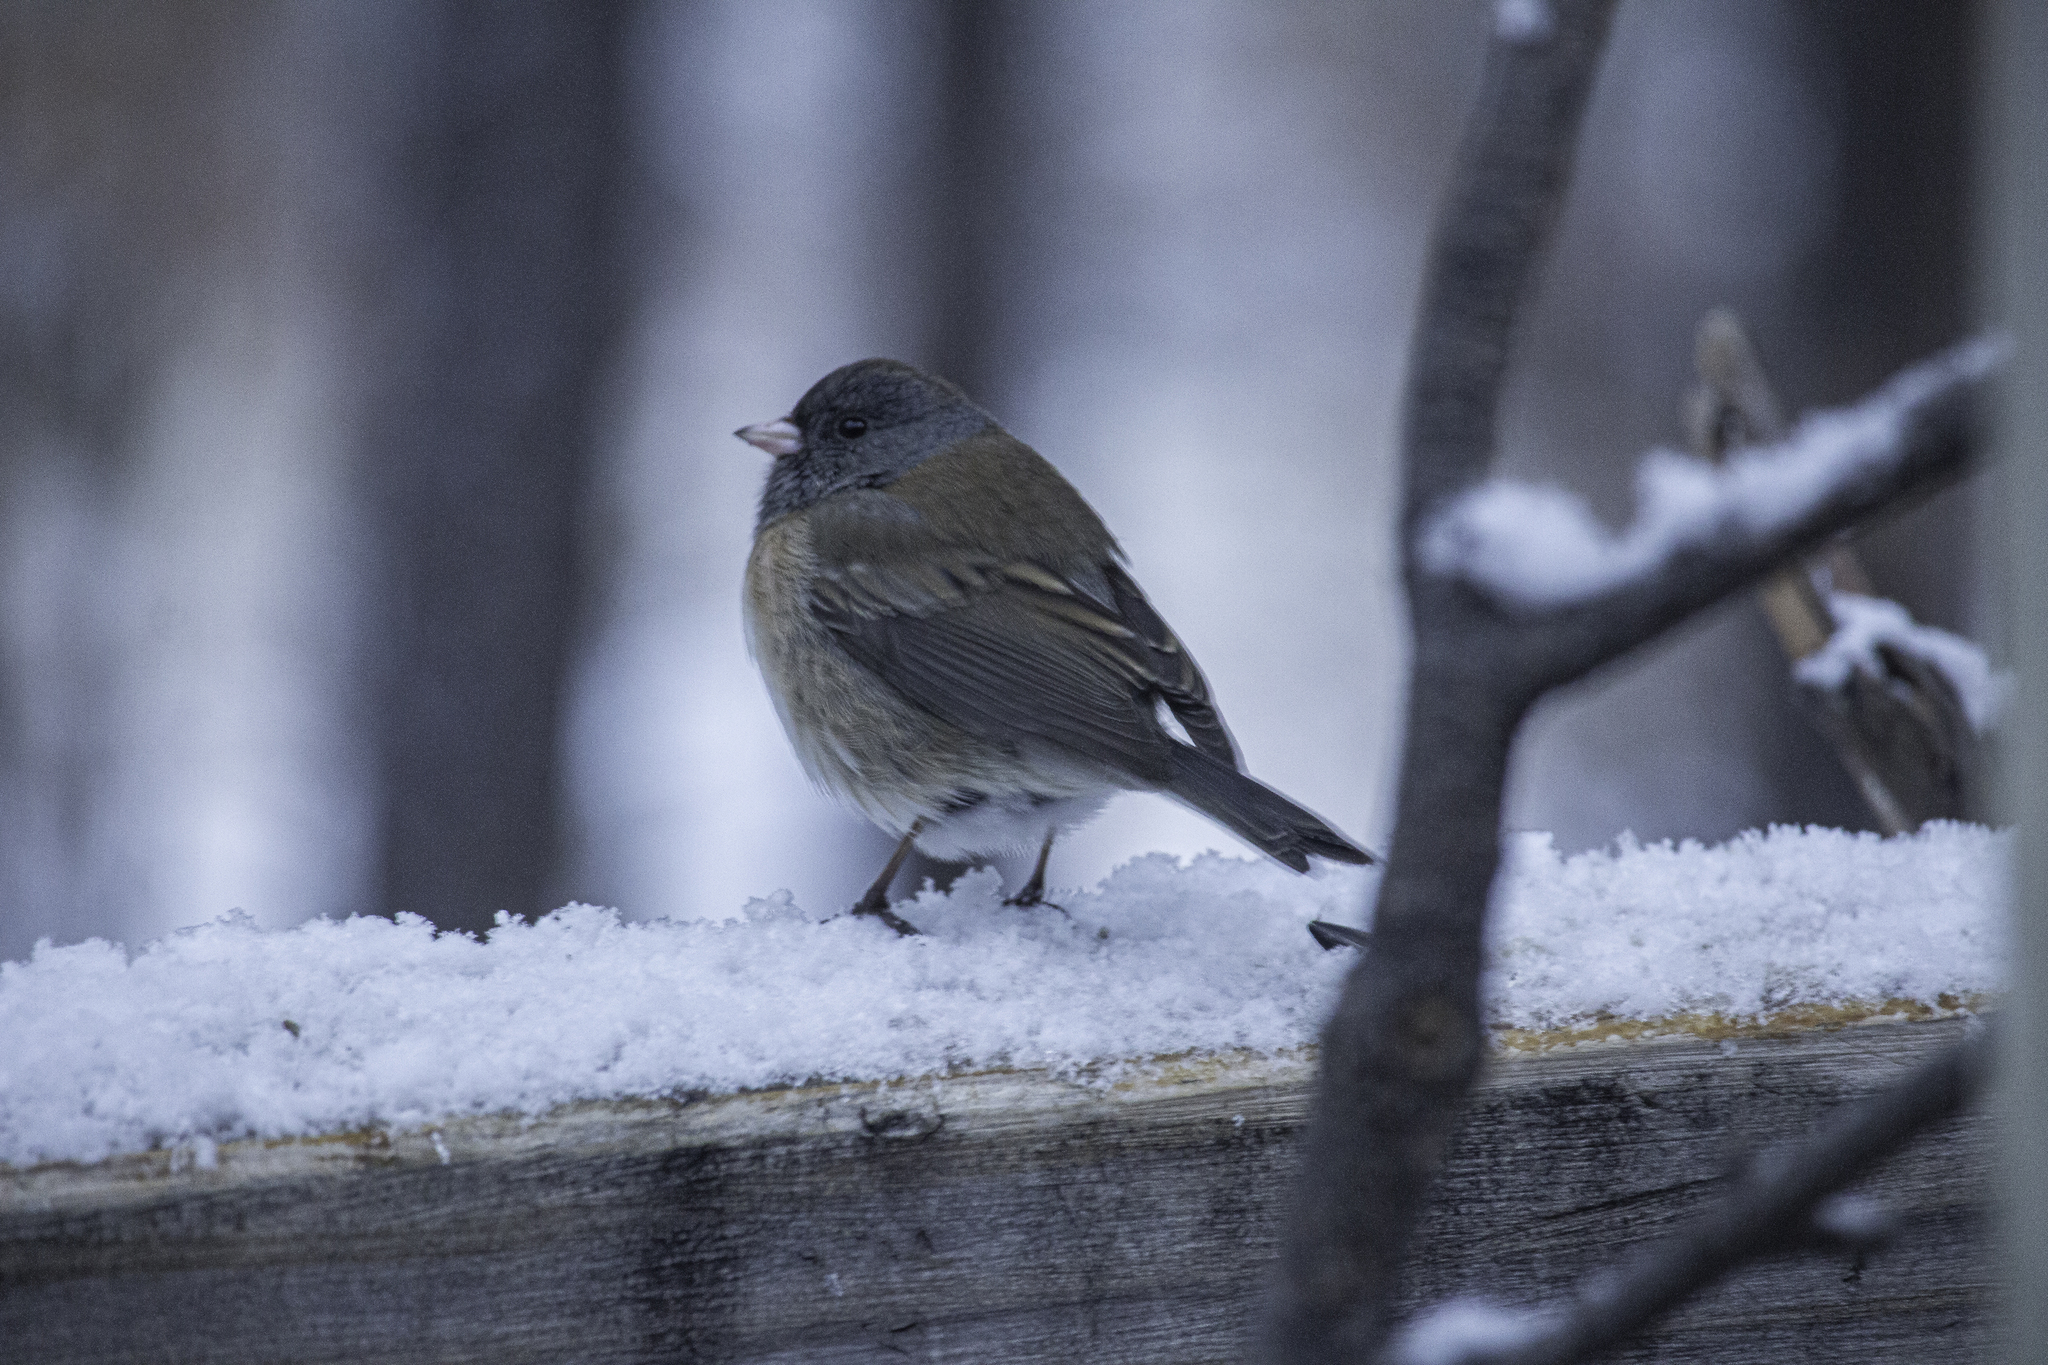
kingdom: Animalia
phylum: Chordata
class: Aves
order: Passeriformes
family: Passerellidae
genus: Junco
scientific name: Junco hyemalis
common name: Dark-eyed junco
